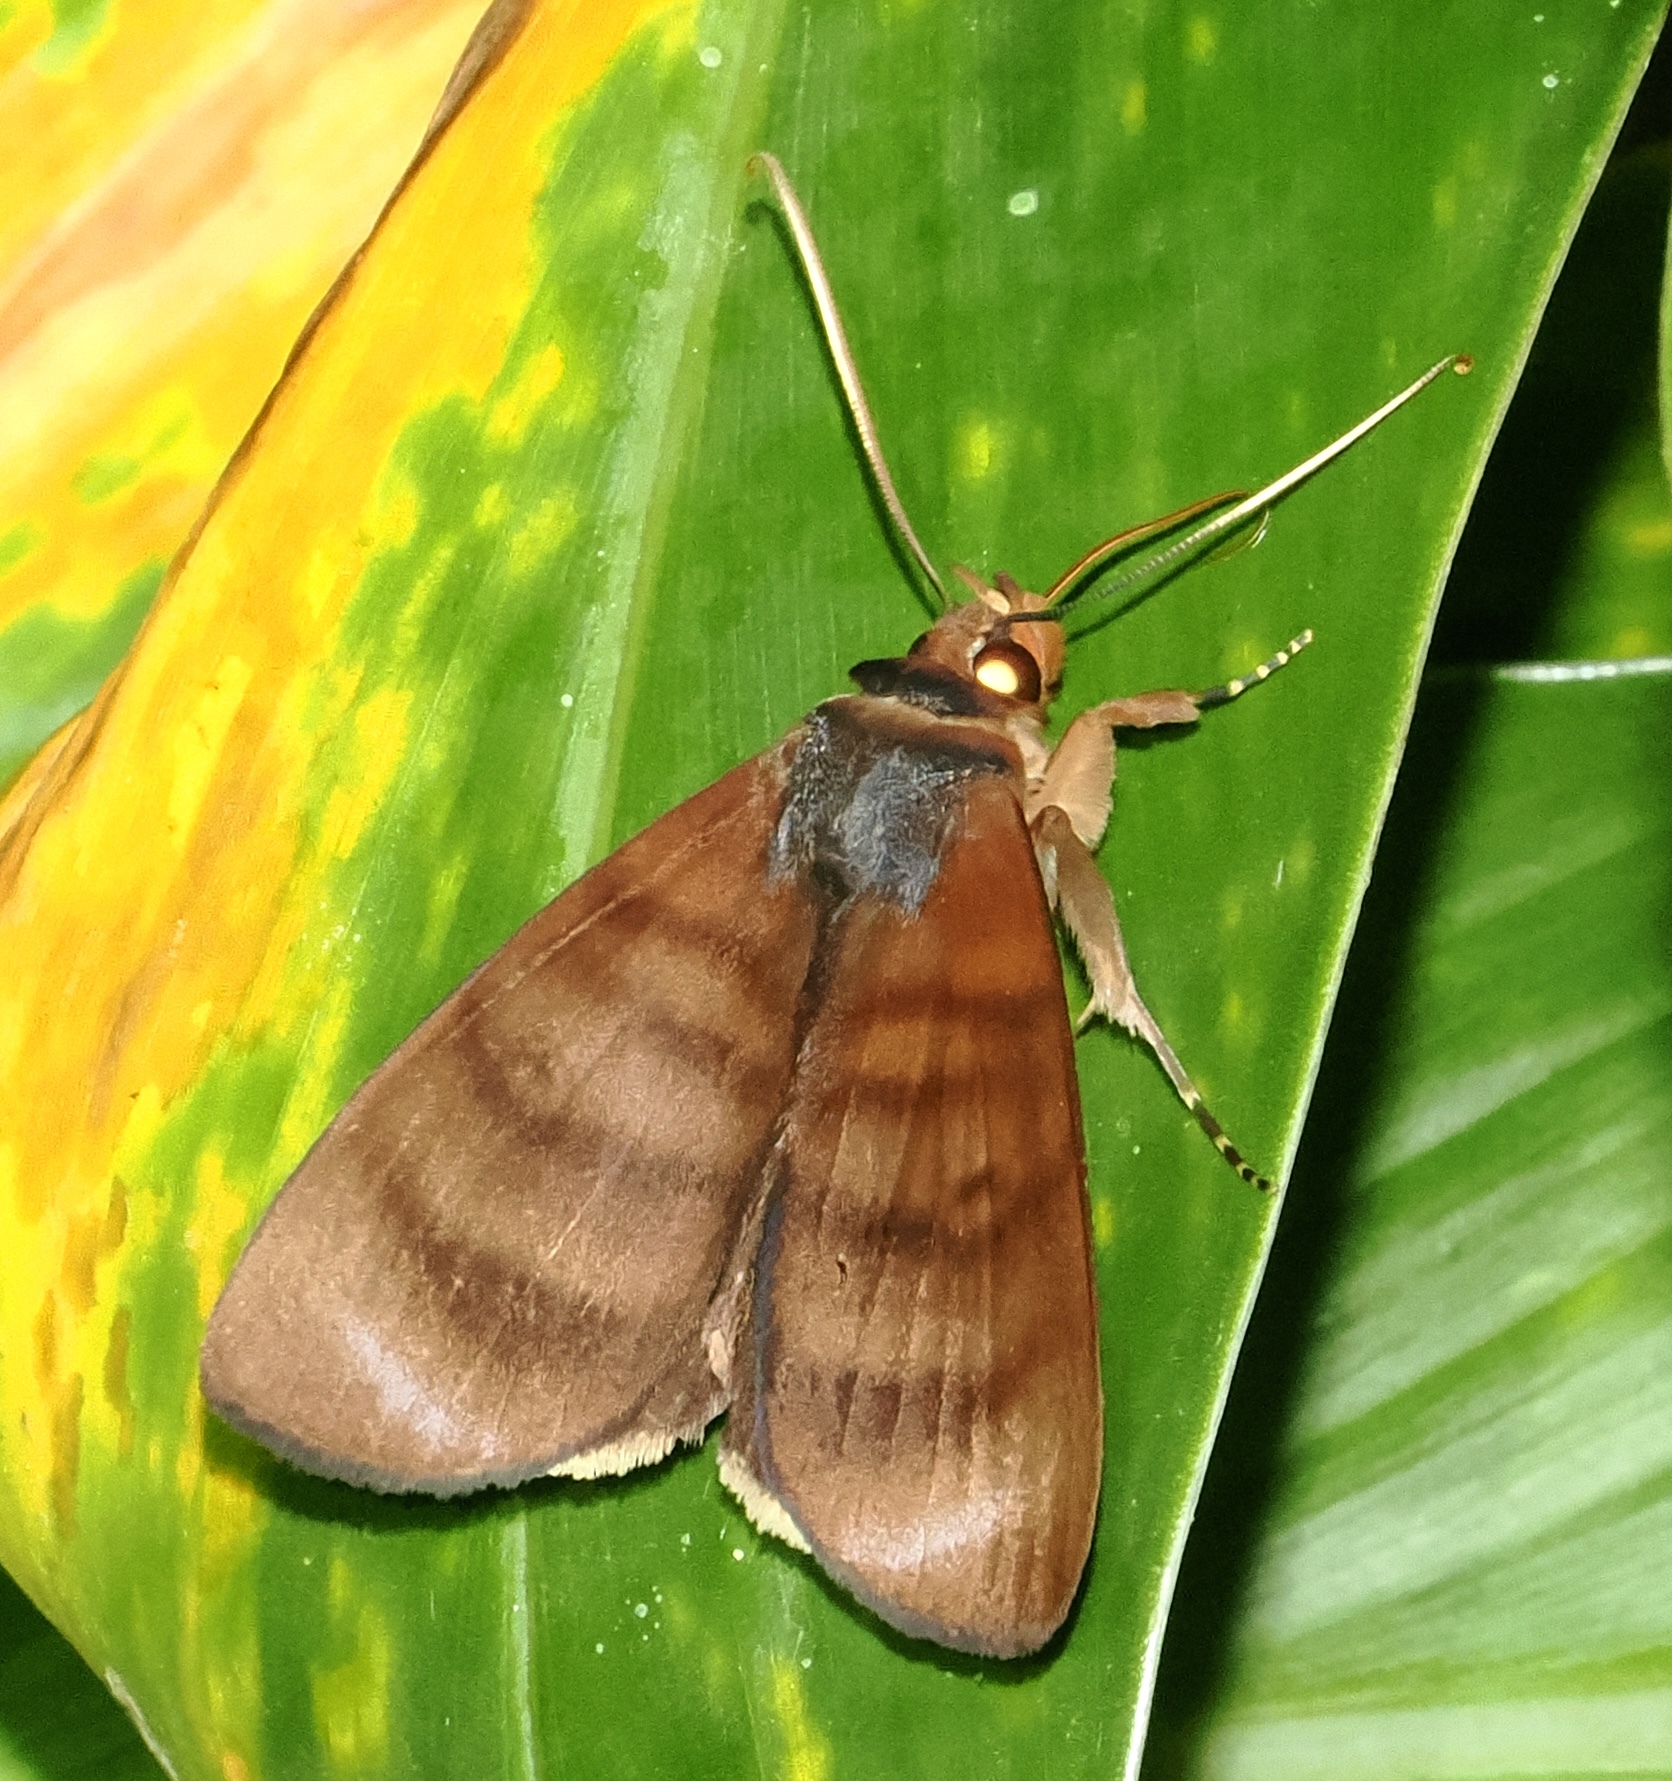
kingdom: Animalia
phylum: Arthropoda
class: Insecta
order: Lepidoptera
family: Erebidae
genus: Ceromacra
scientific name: Ceromacra tymber
